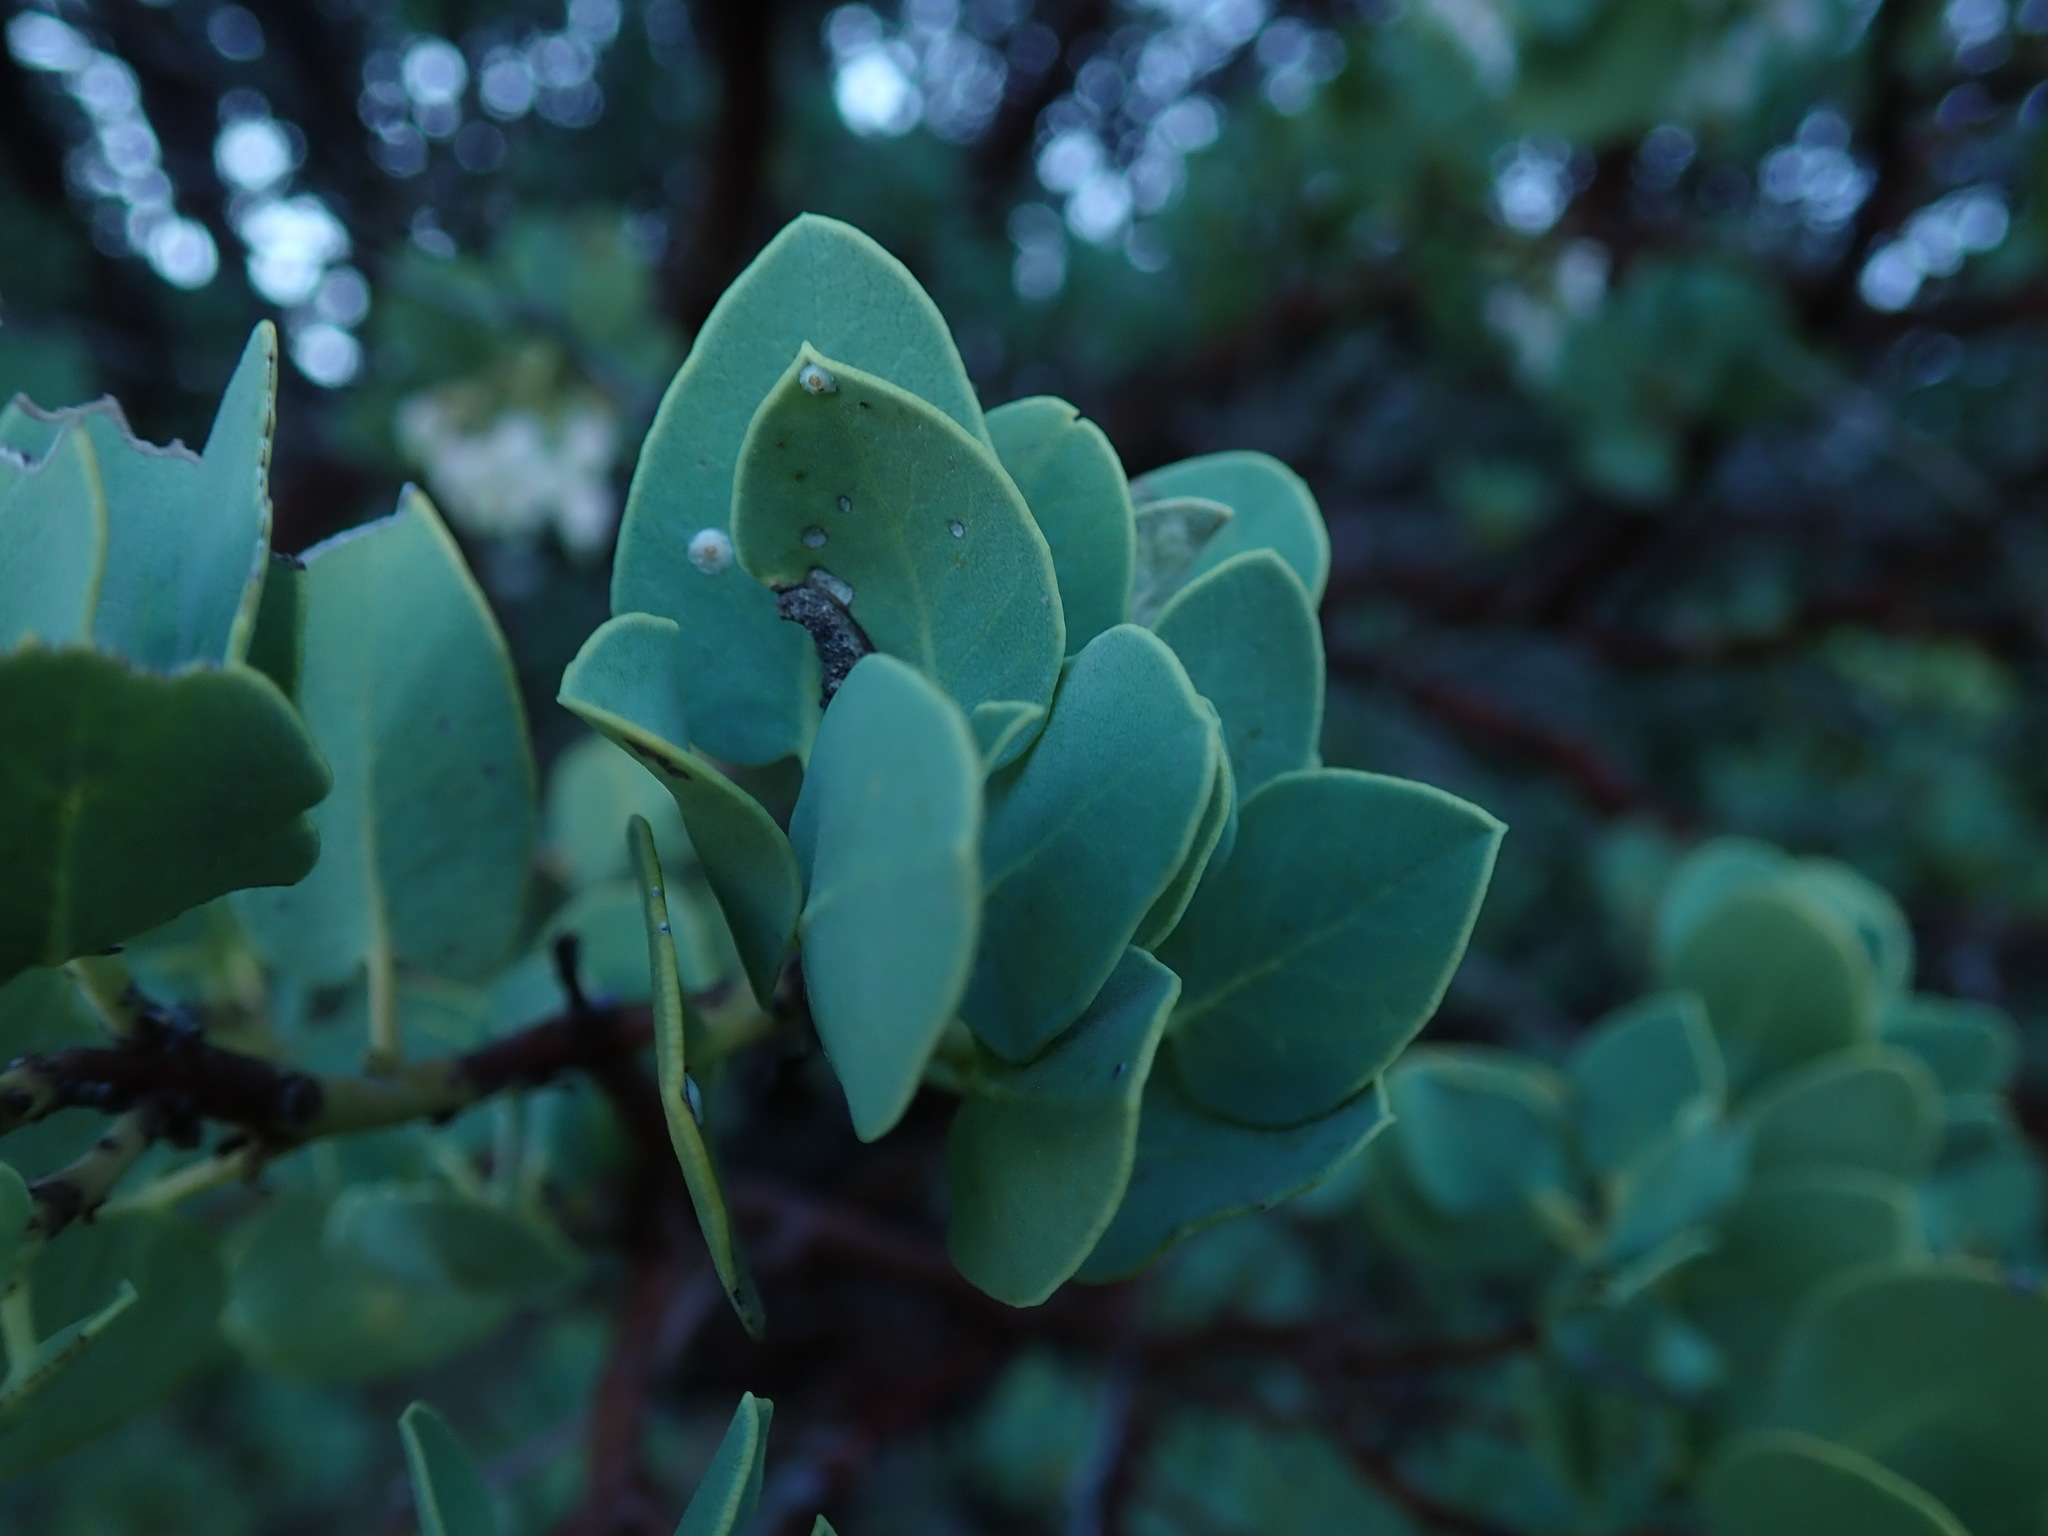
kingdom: Plantae
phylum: Tracheophyta
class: Magnoliopsida
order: Ericales
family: Ericaceae
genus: Arctostaphylos
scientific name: Arctostaphylos glauca
